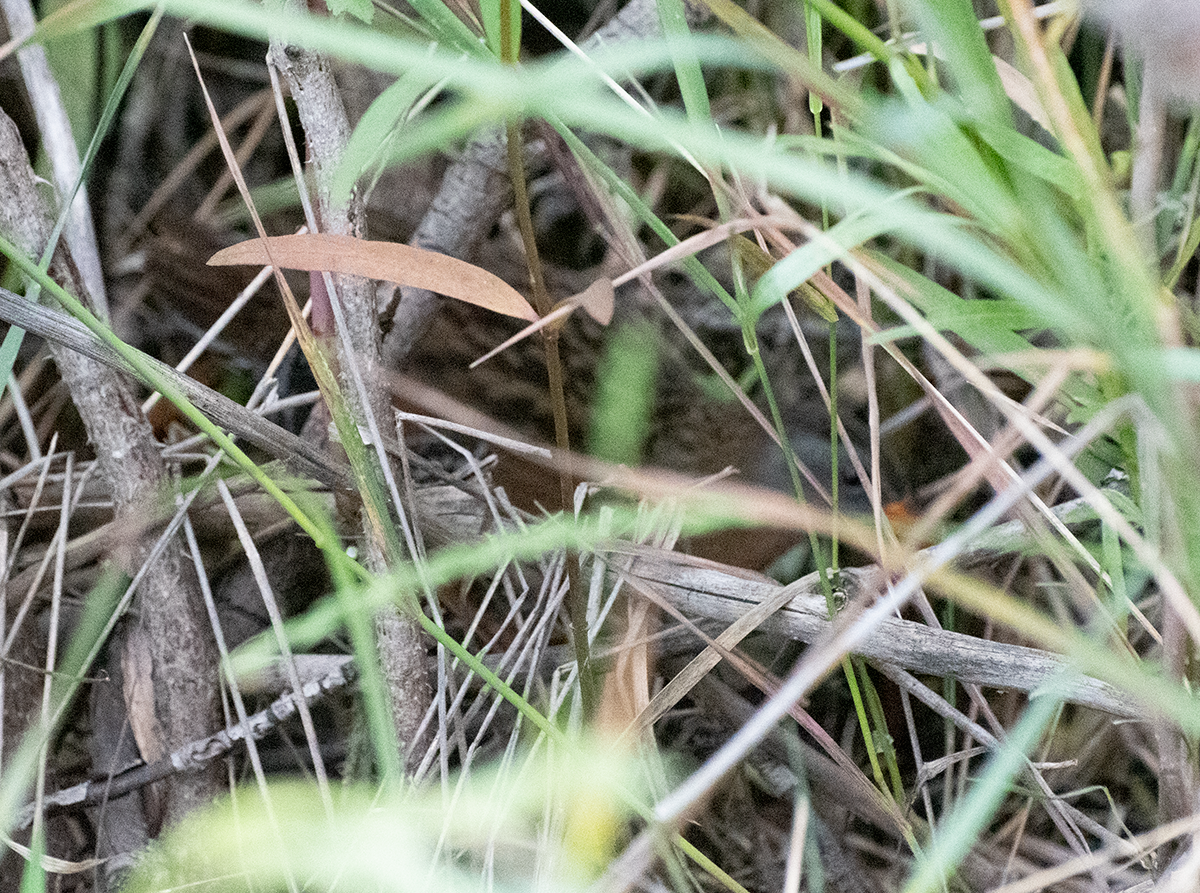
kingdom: Animalia
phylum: Chordata
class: Aves
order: Gruiformes
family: Rallidae
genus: Rallus
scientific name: Rallus limicola
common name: Virginia rail
